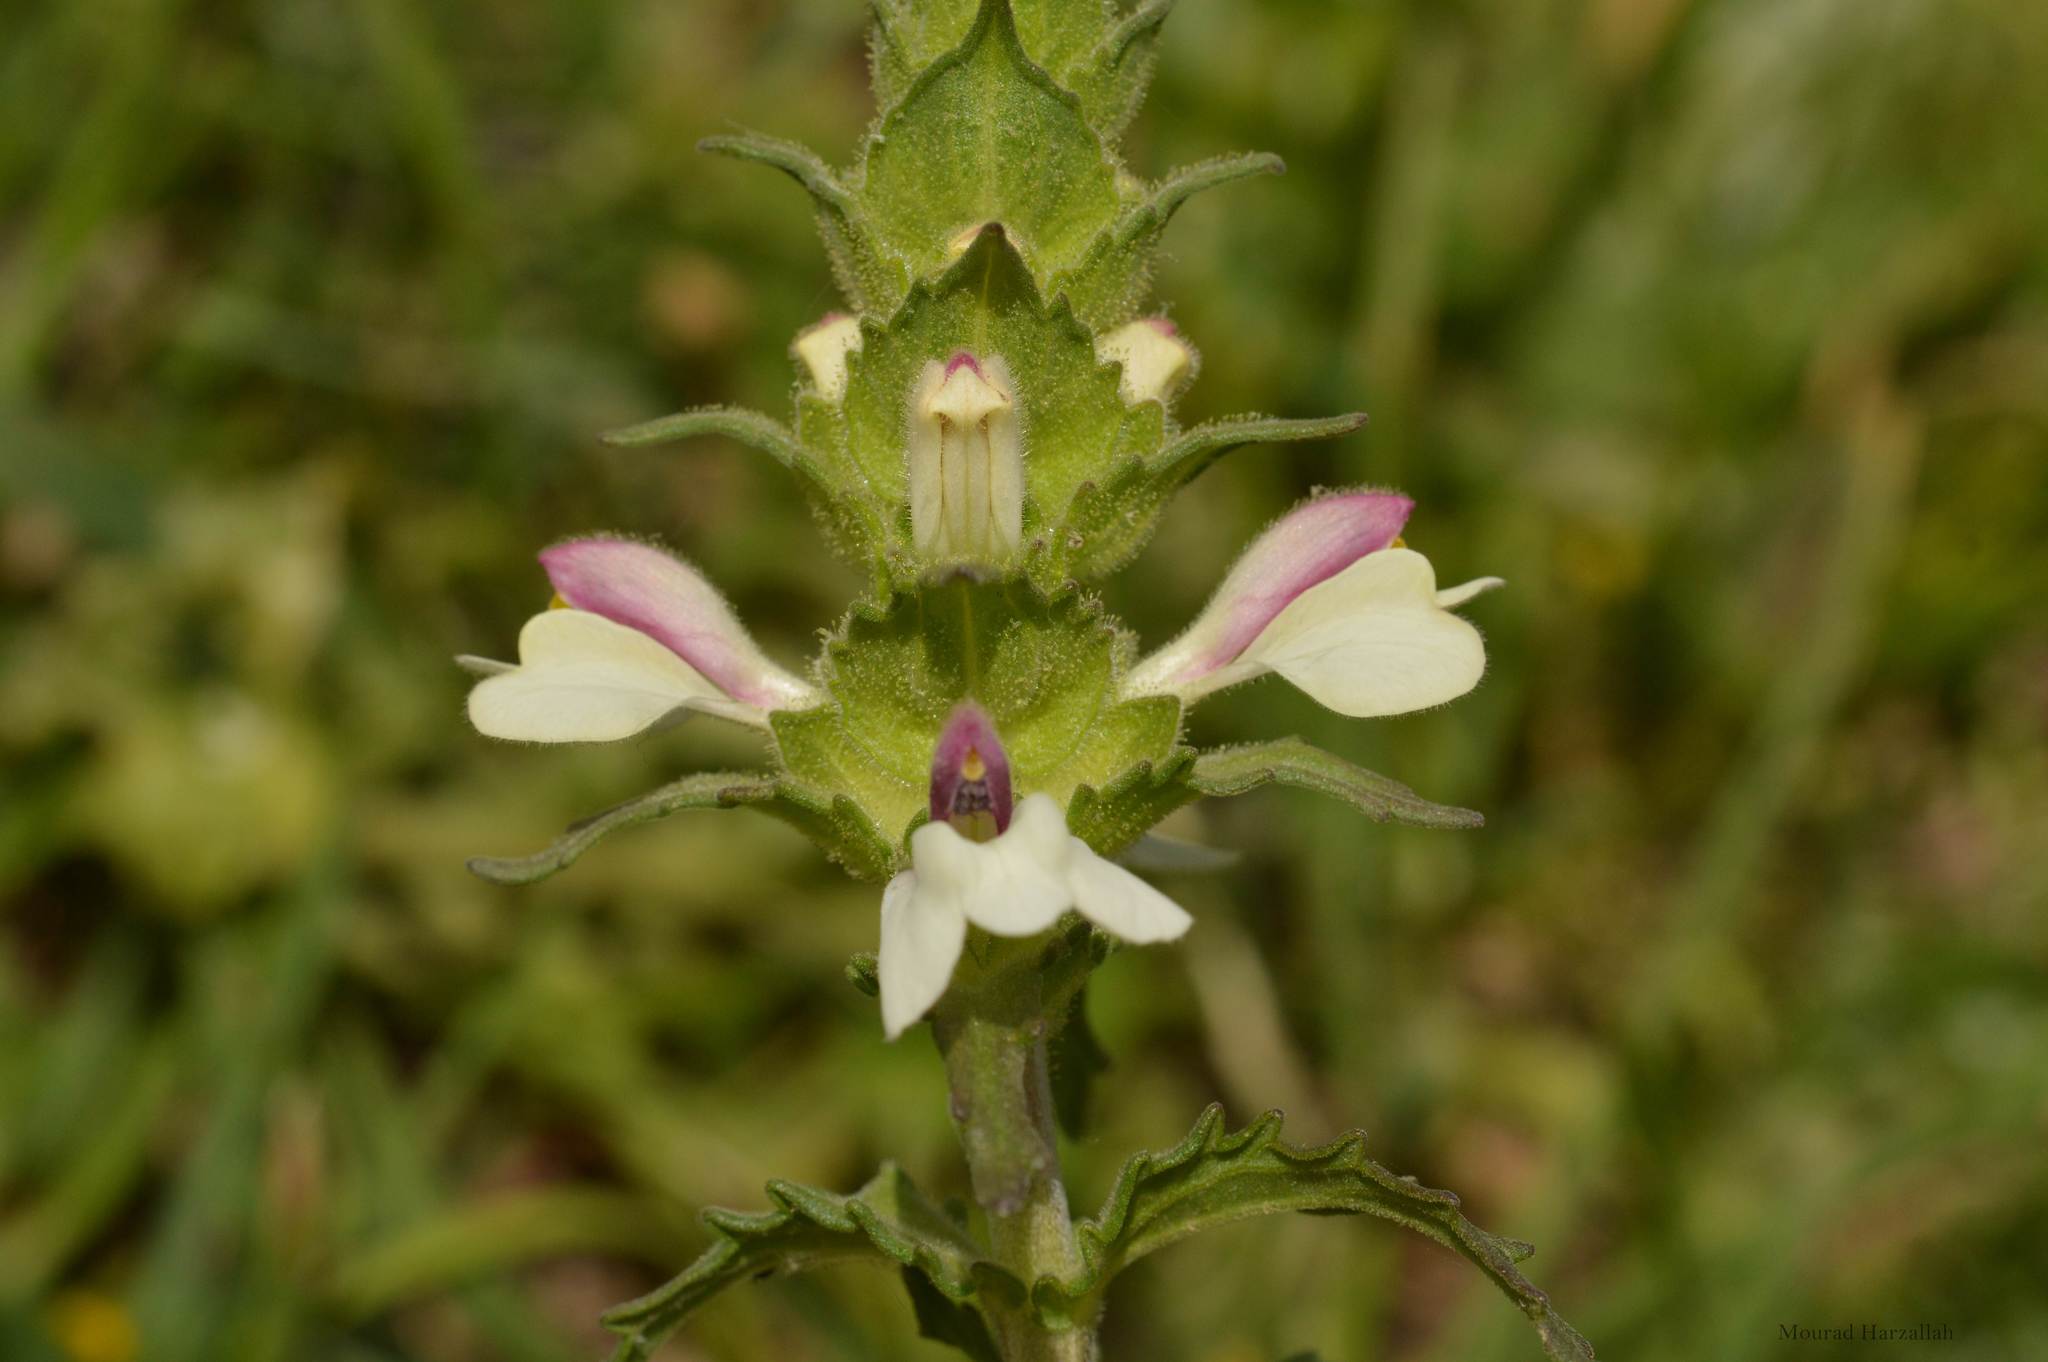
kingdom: Plantae
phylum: Tracheophyta
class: Magnoliopsida
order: Lamiales
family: Orobanchaceae
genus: Bellardia
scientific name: Bellardia trixago
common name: Mediterranean lineseed
